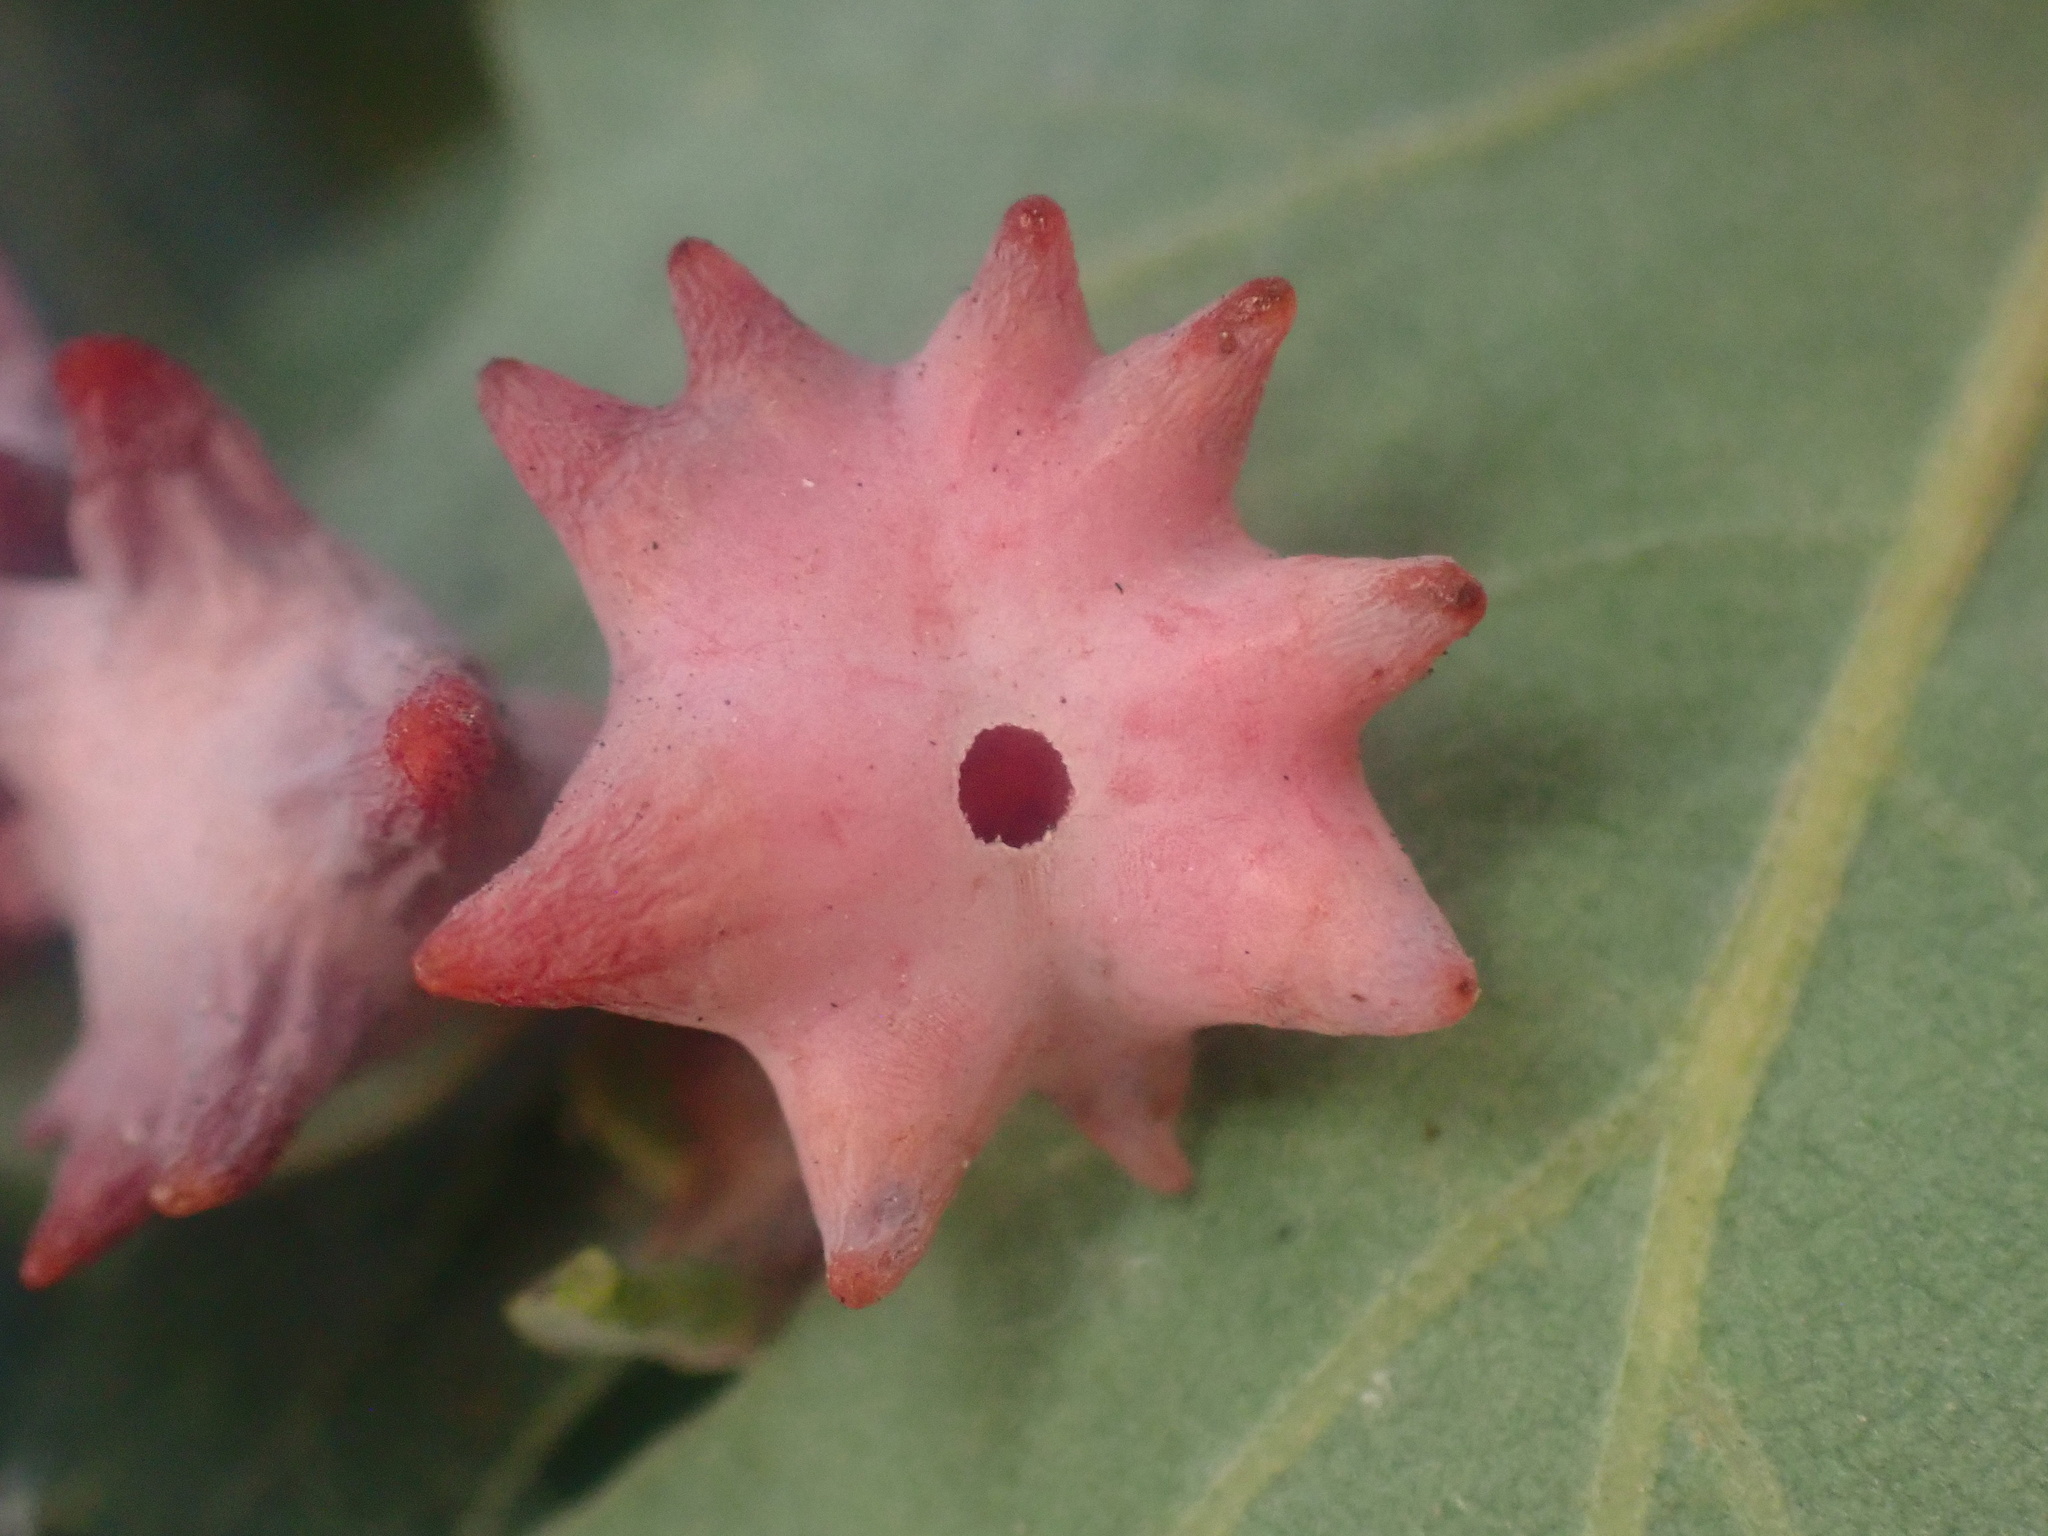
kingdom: Animalia
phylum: Arthropoda
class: Insecta
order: Hymenoptera
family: Cynipidae
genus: Cynips
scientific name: Cynips douglasi
